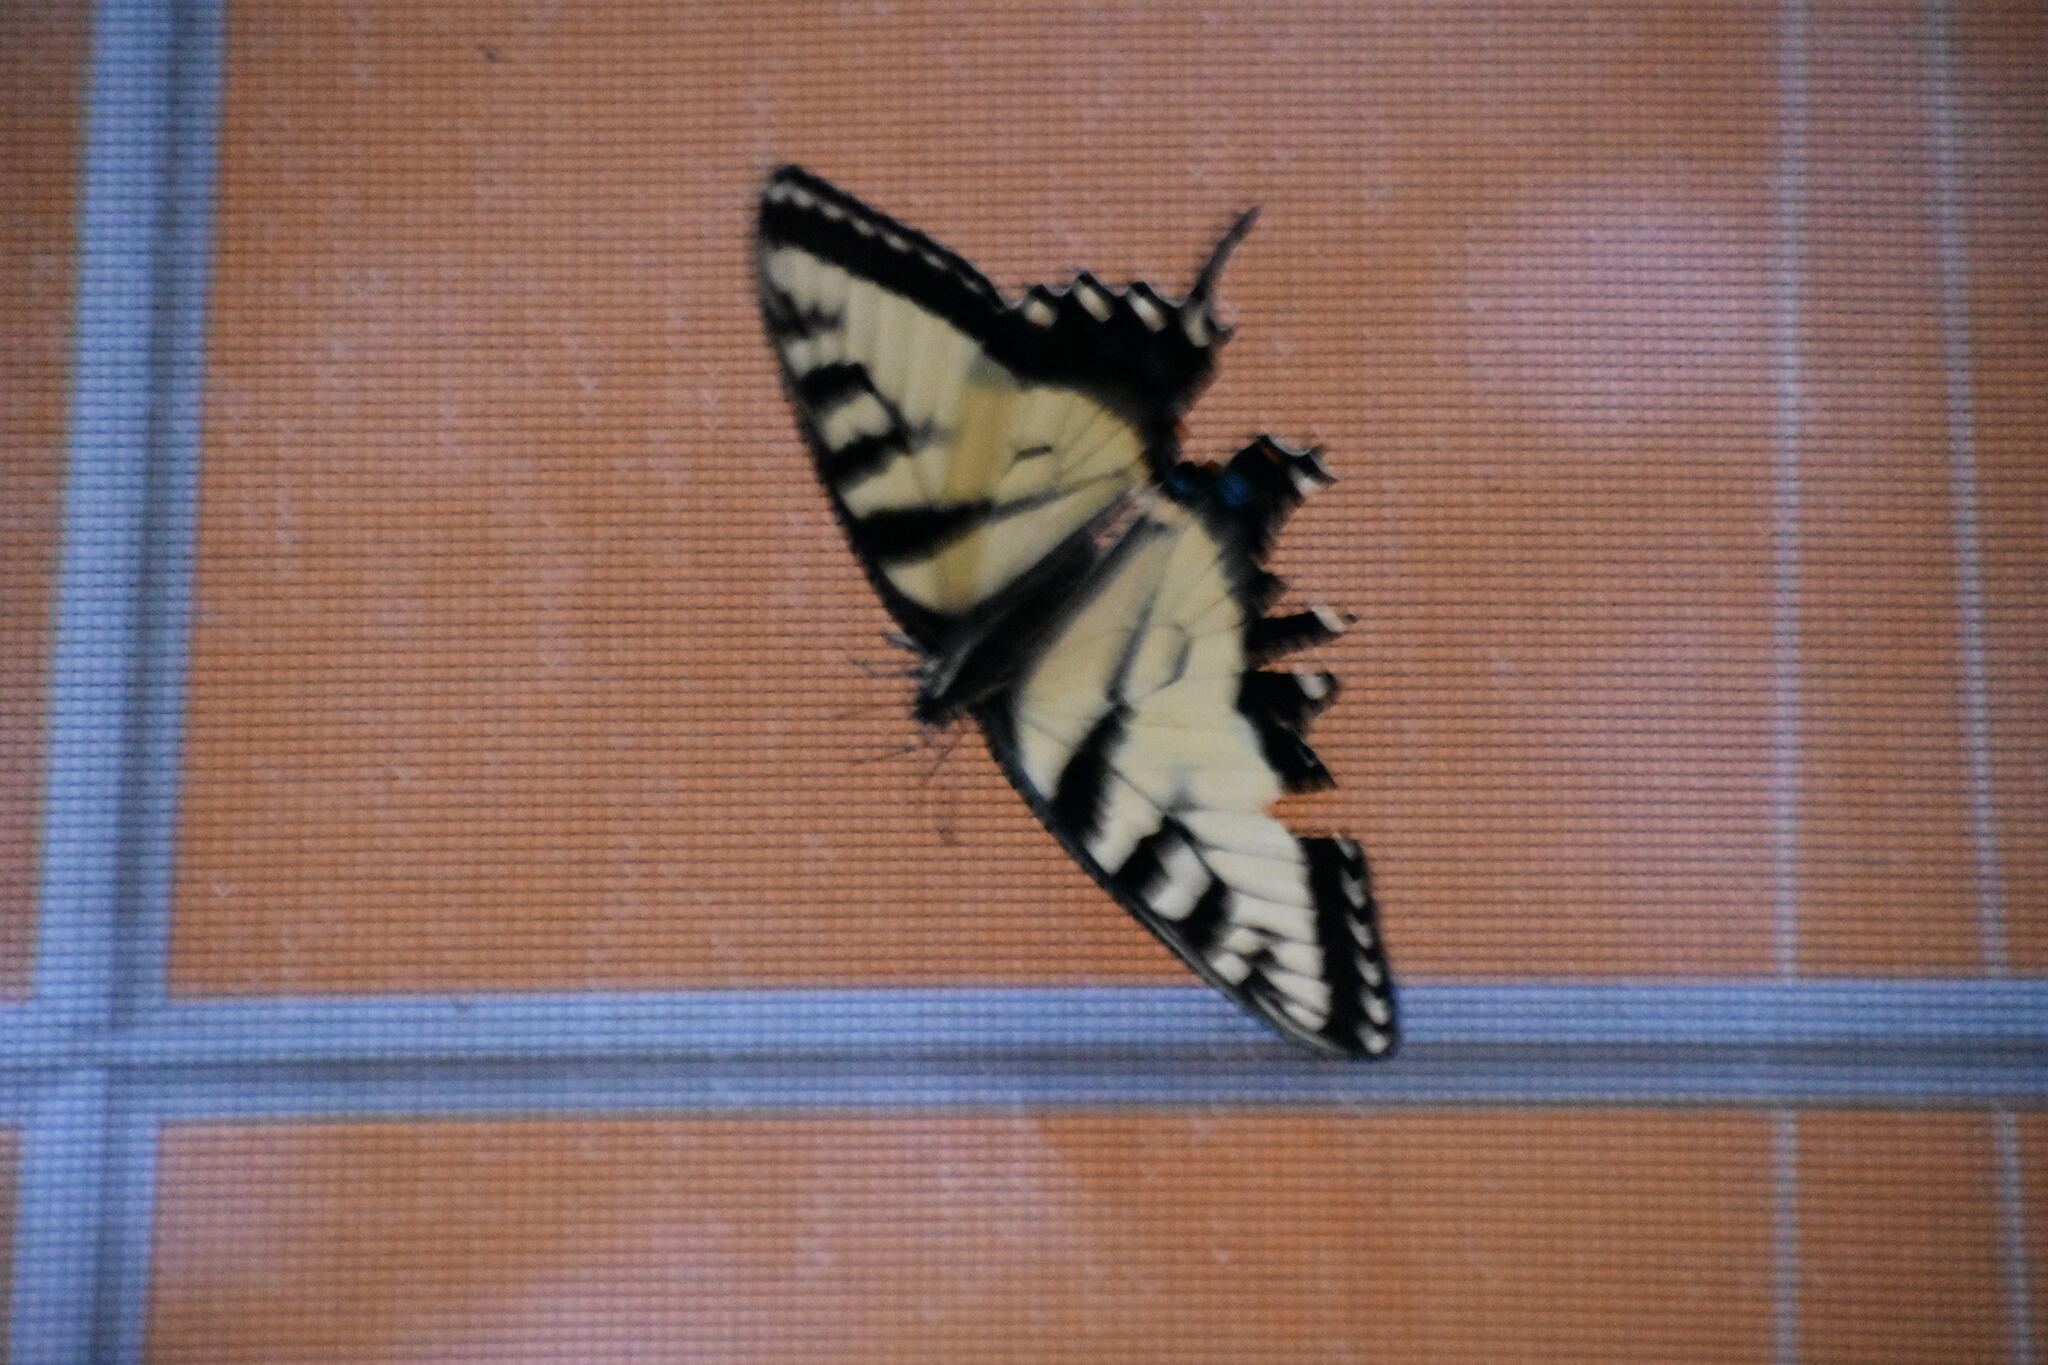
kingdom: Animalia
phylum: Arthropoda
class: Insecta
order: Lepidoptera
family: Papilionidae
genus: Papilio
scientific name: Papilio glaucus
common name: Tiger swallowtail
